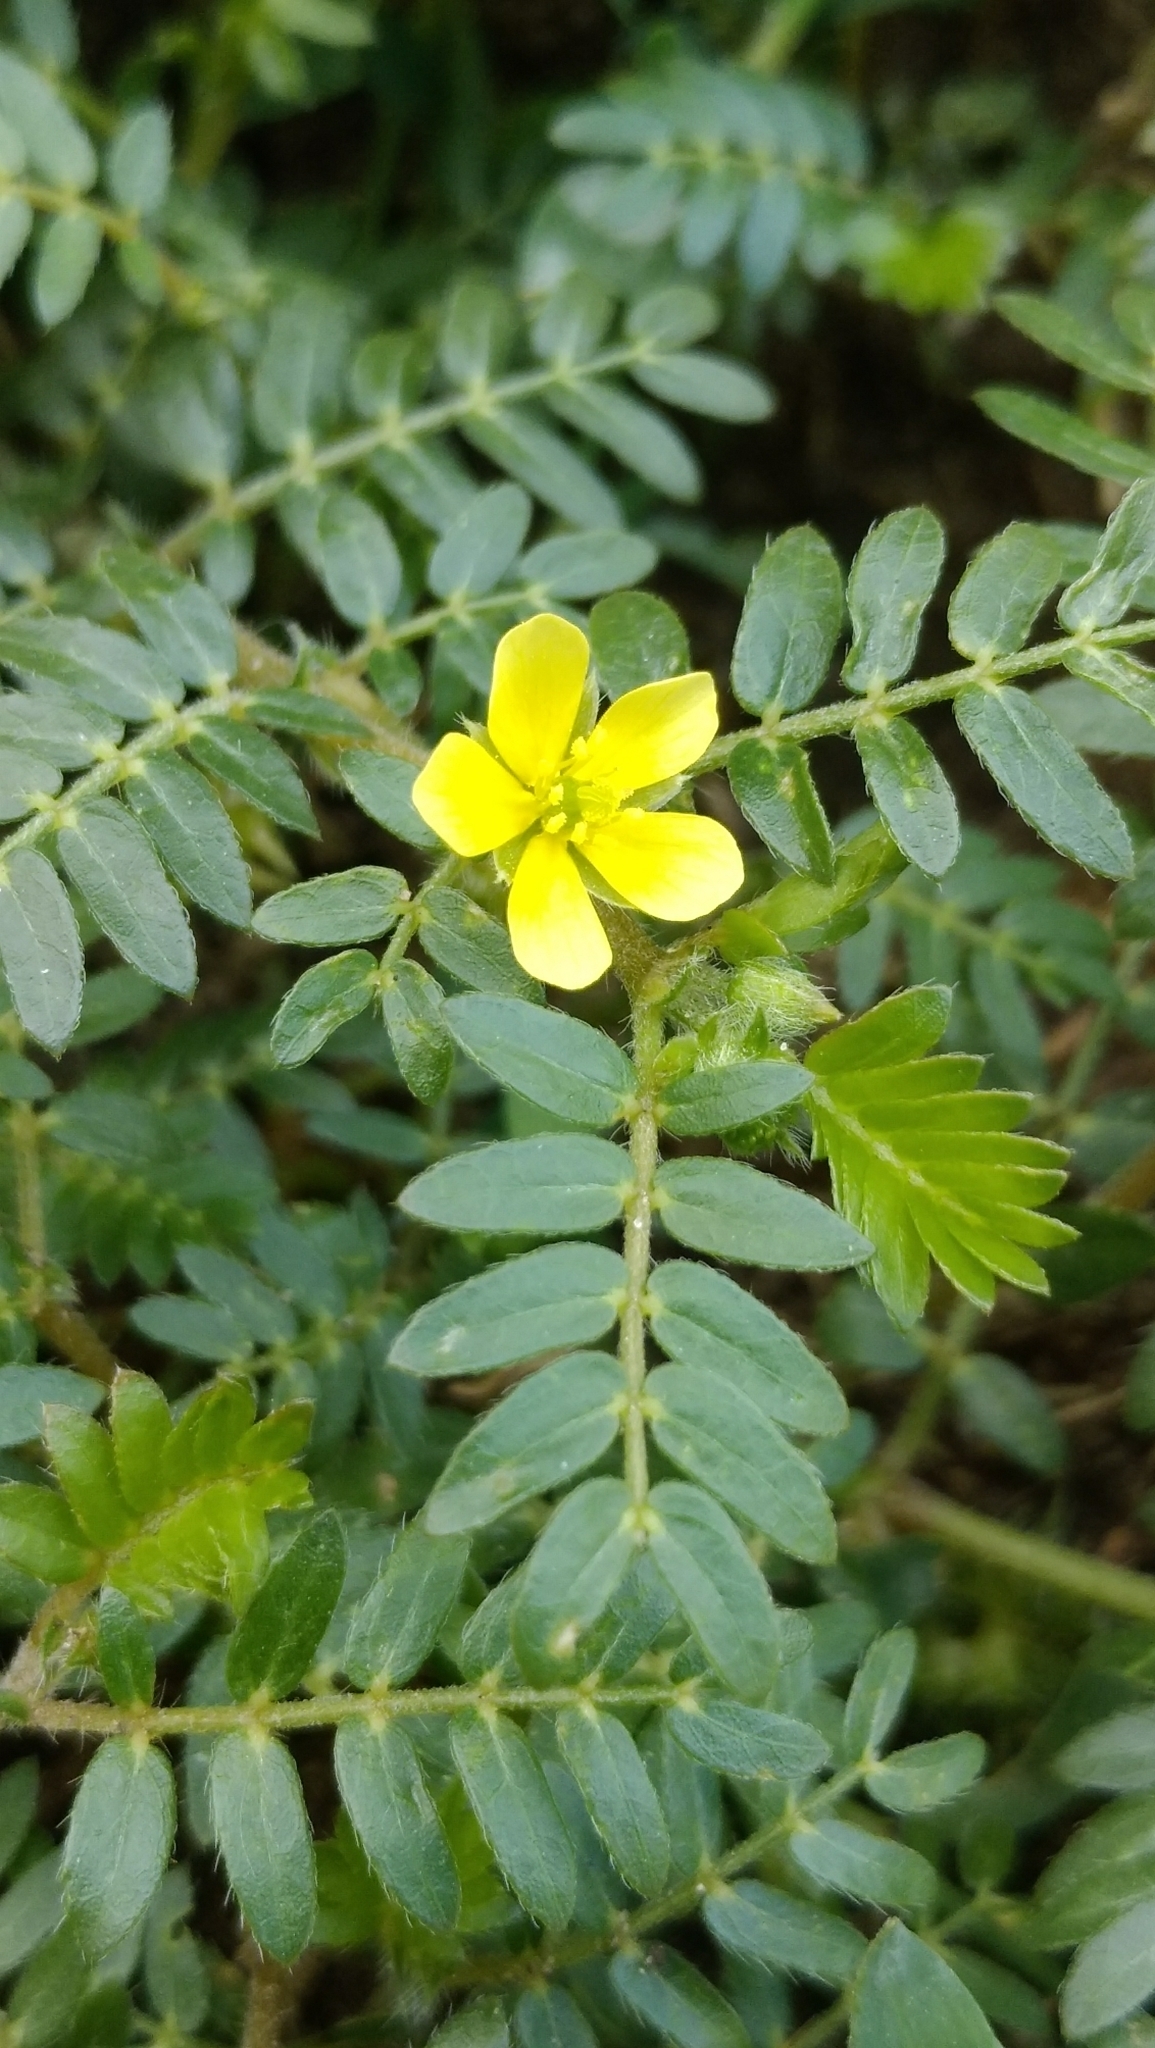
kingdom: Plantae
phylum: Tracheophyta
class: Magnoliopsida
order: Zygophyllales
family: Zygophyllaceae
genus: Tribulus
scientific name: Tribulus terrestris
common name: Puncturevine
